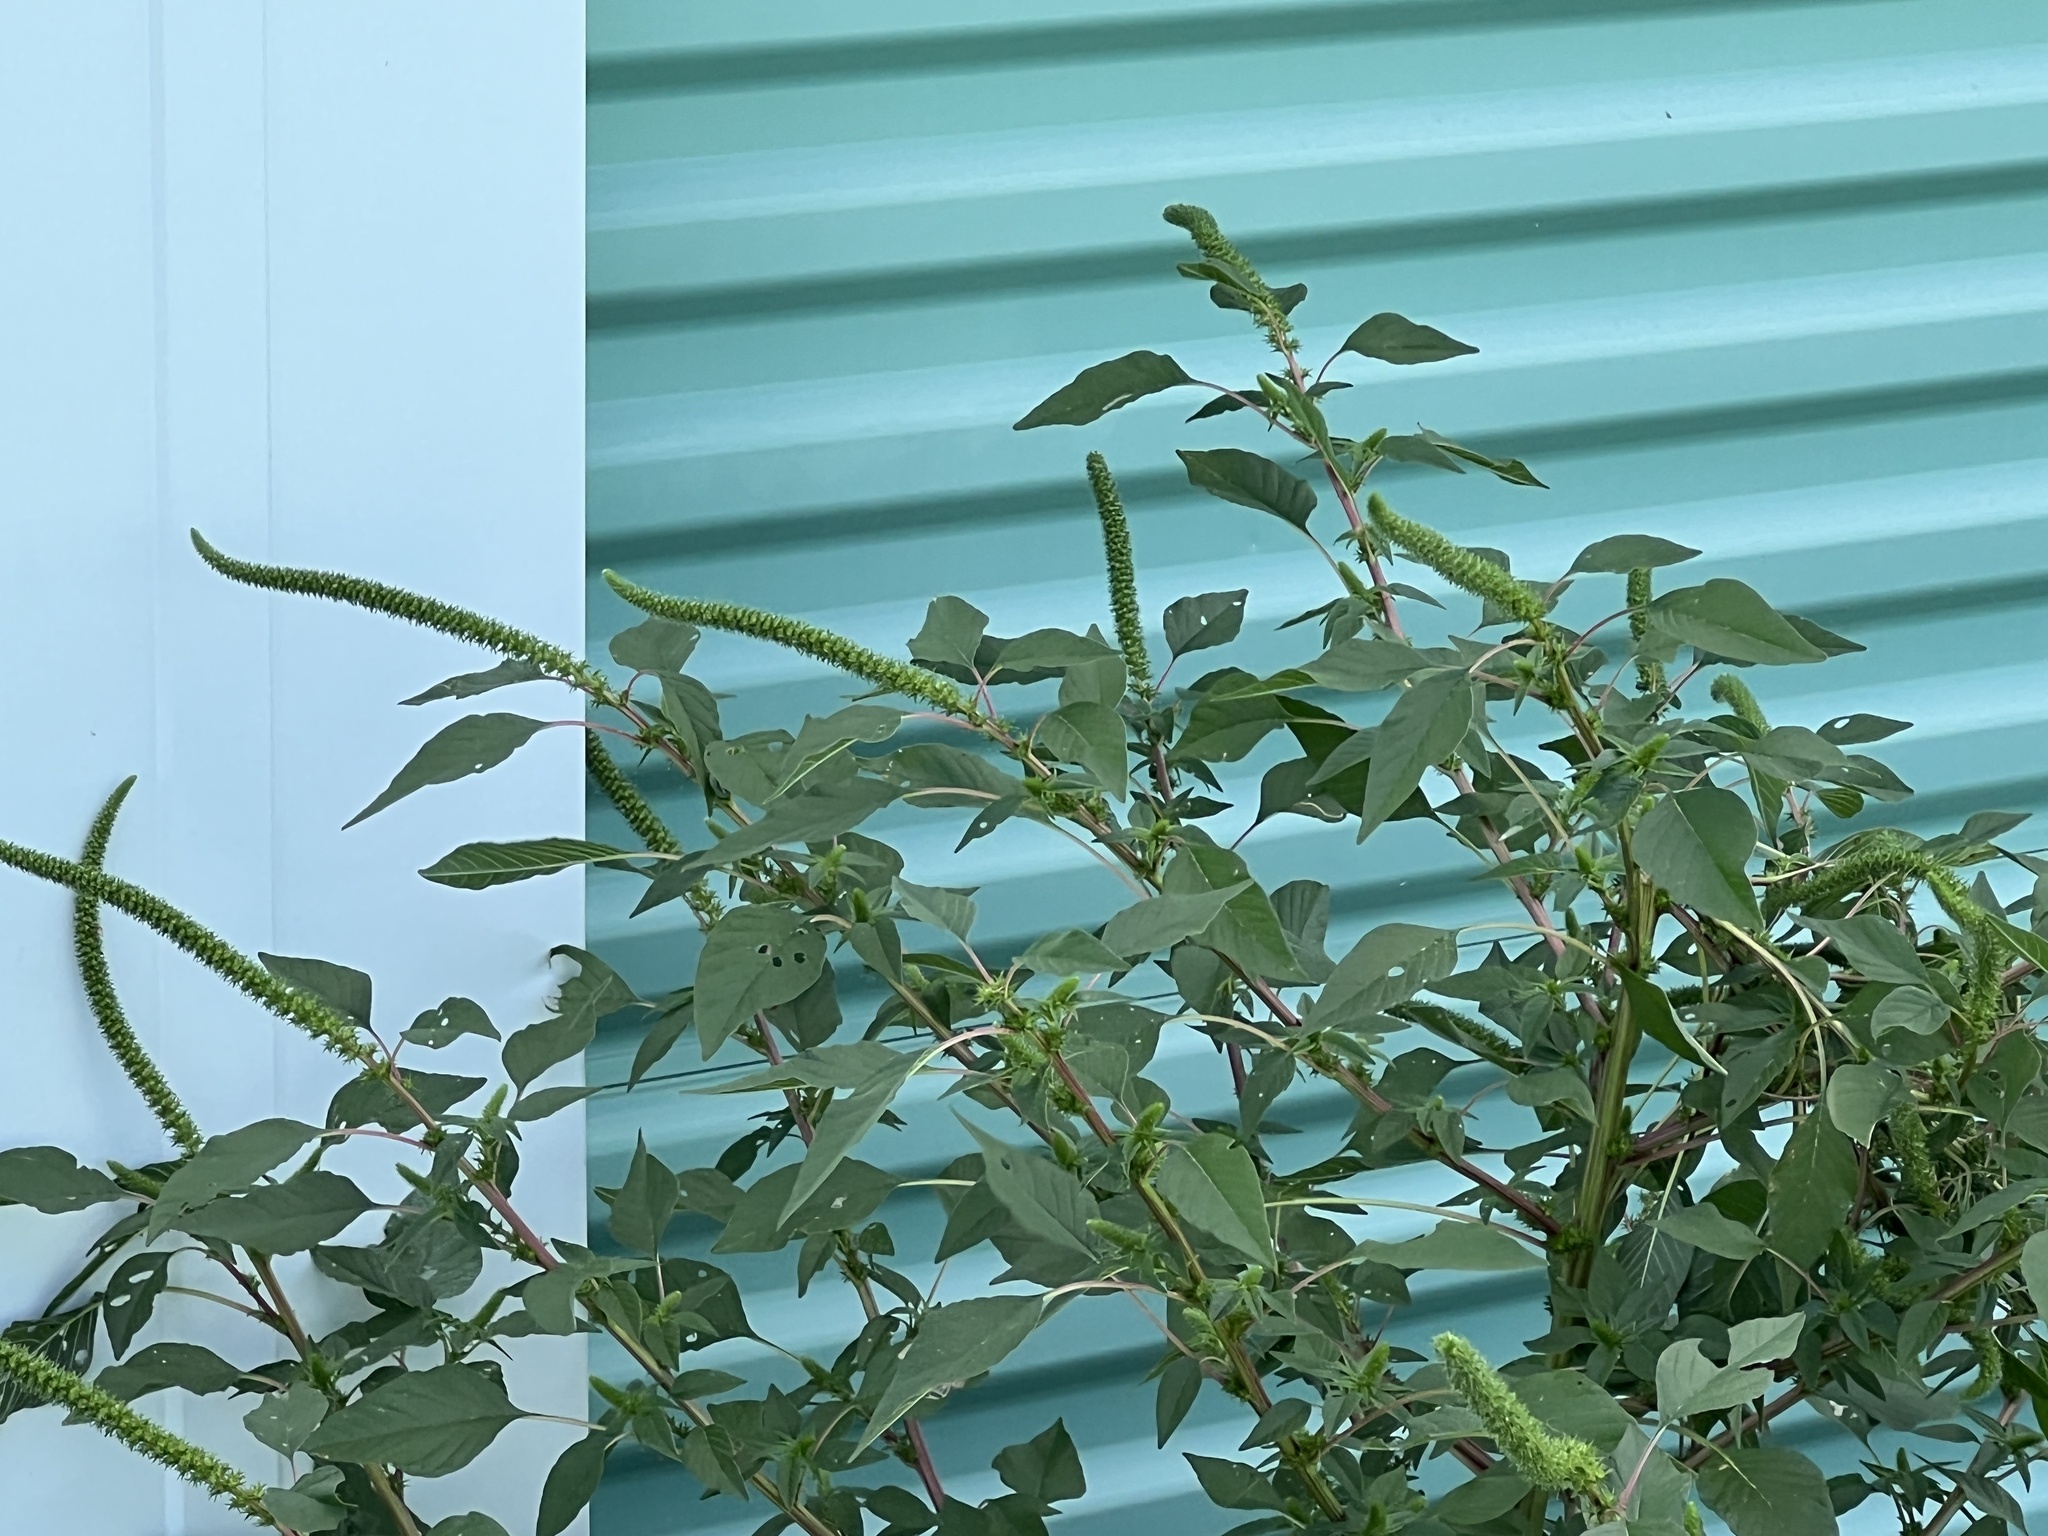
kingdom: Plantae
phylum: Tracheophyta
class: Magnoliopsida
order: Caryophyllales
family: Amaranthaceae
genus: Amaranthus
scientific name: Amaranthus palmeri
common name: Dioecious amaranth
